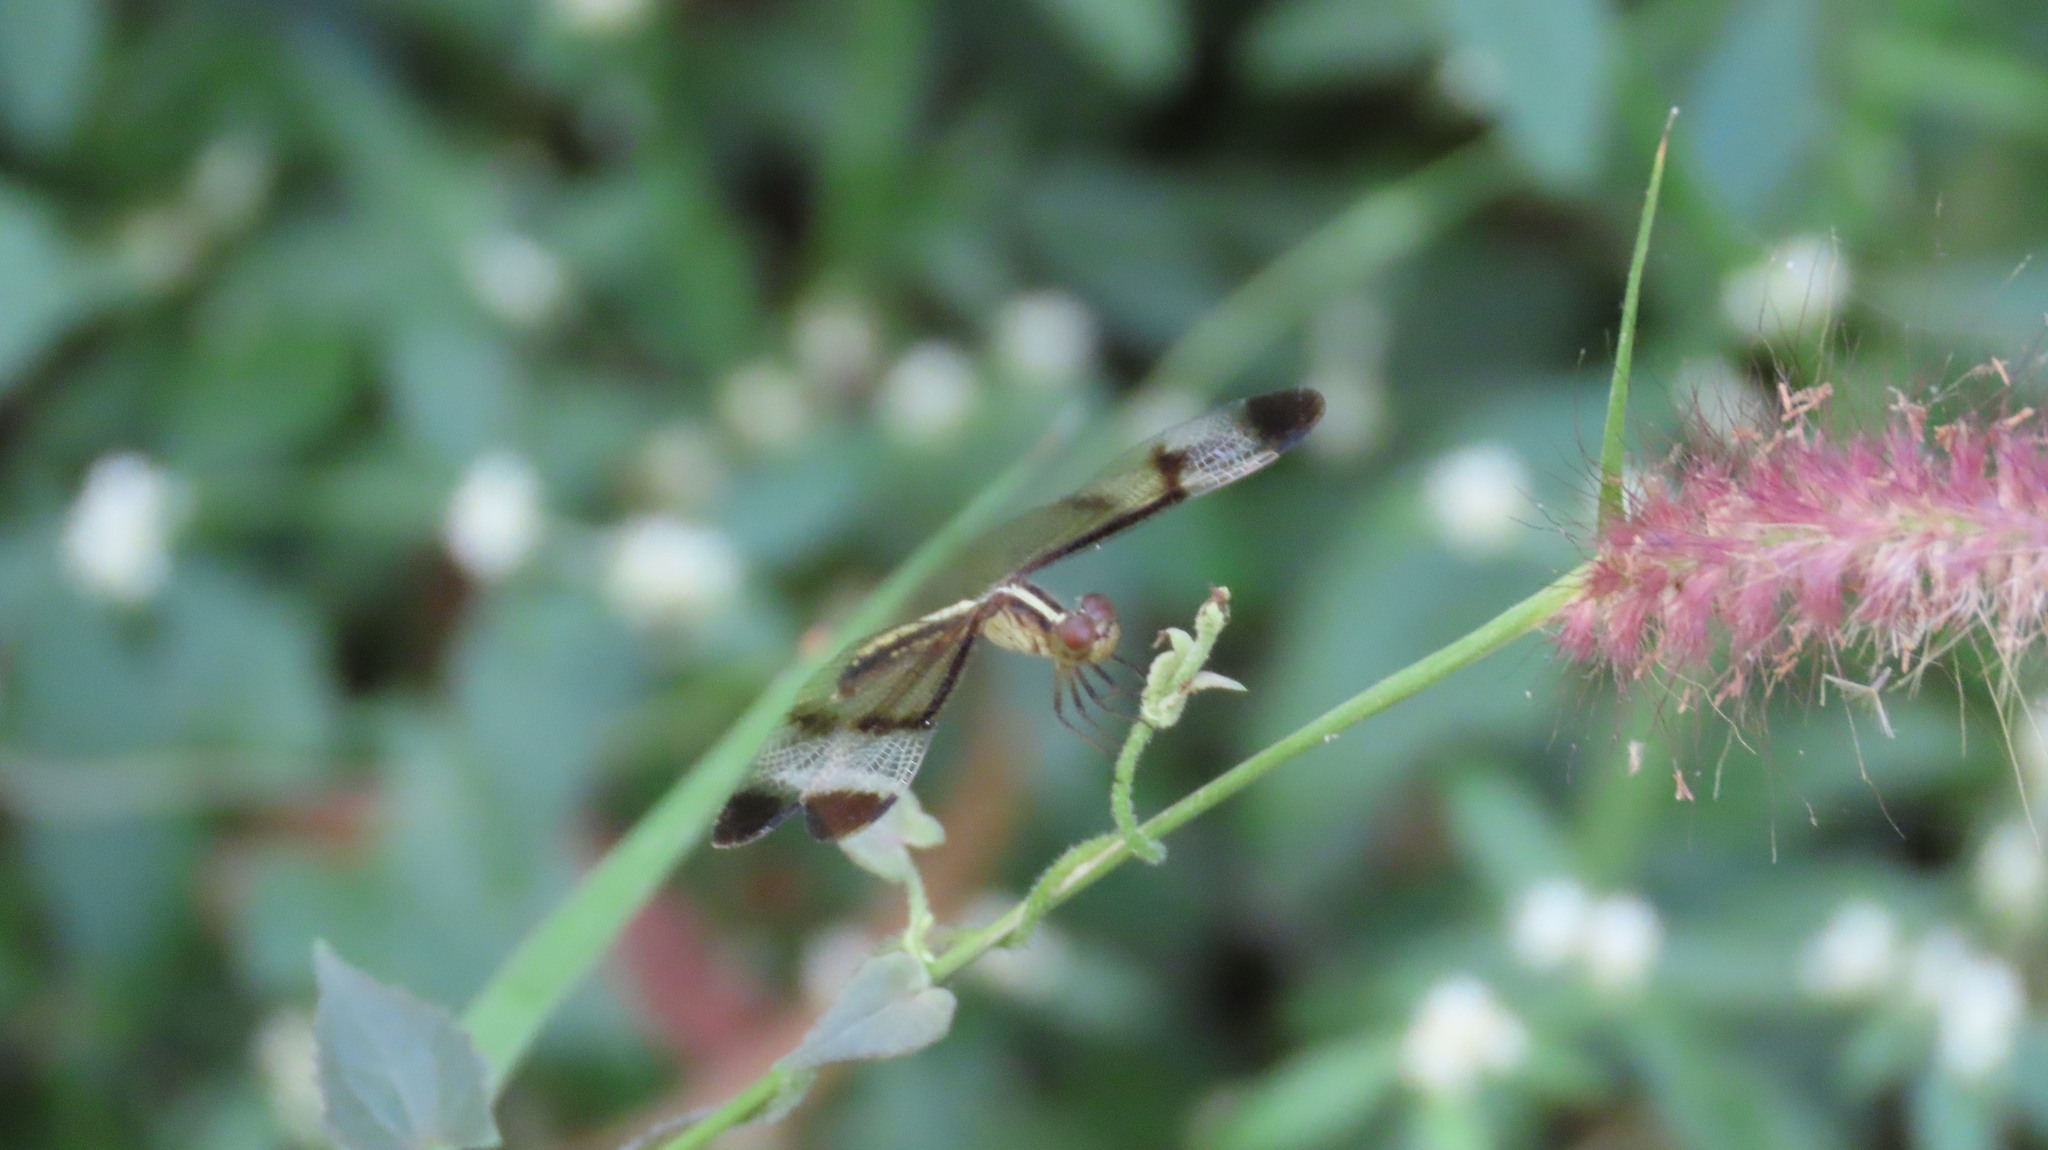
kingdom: Animalia
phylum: Arthropoda
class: Insecta
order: Odonata
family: Libellulidae
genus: Neurothemis
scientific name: Neurothemis tullia
